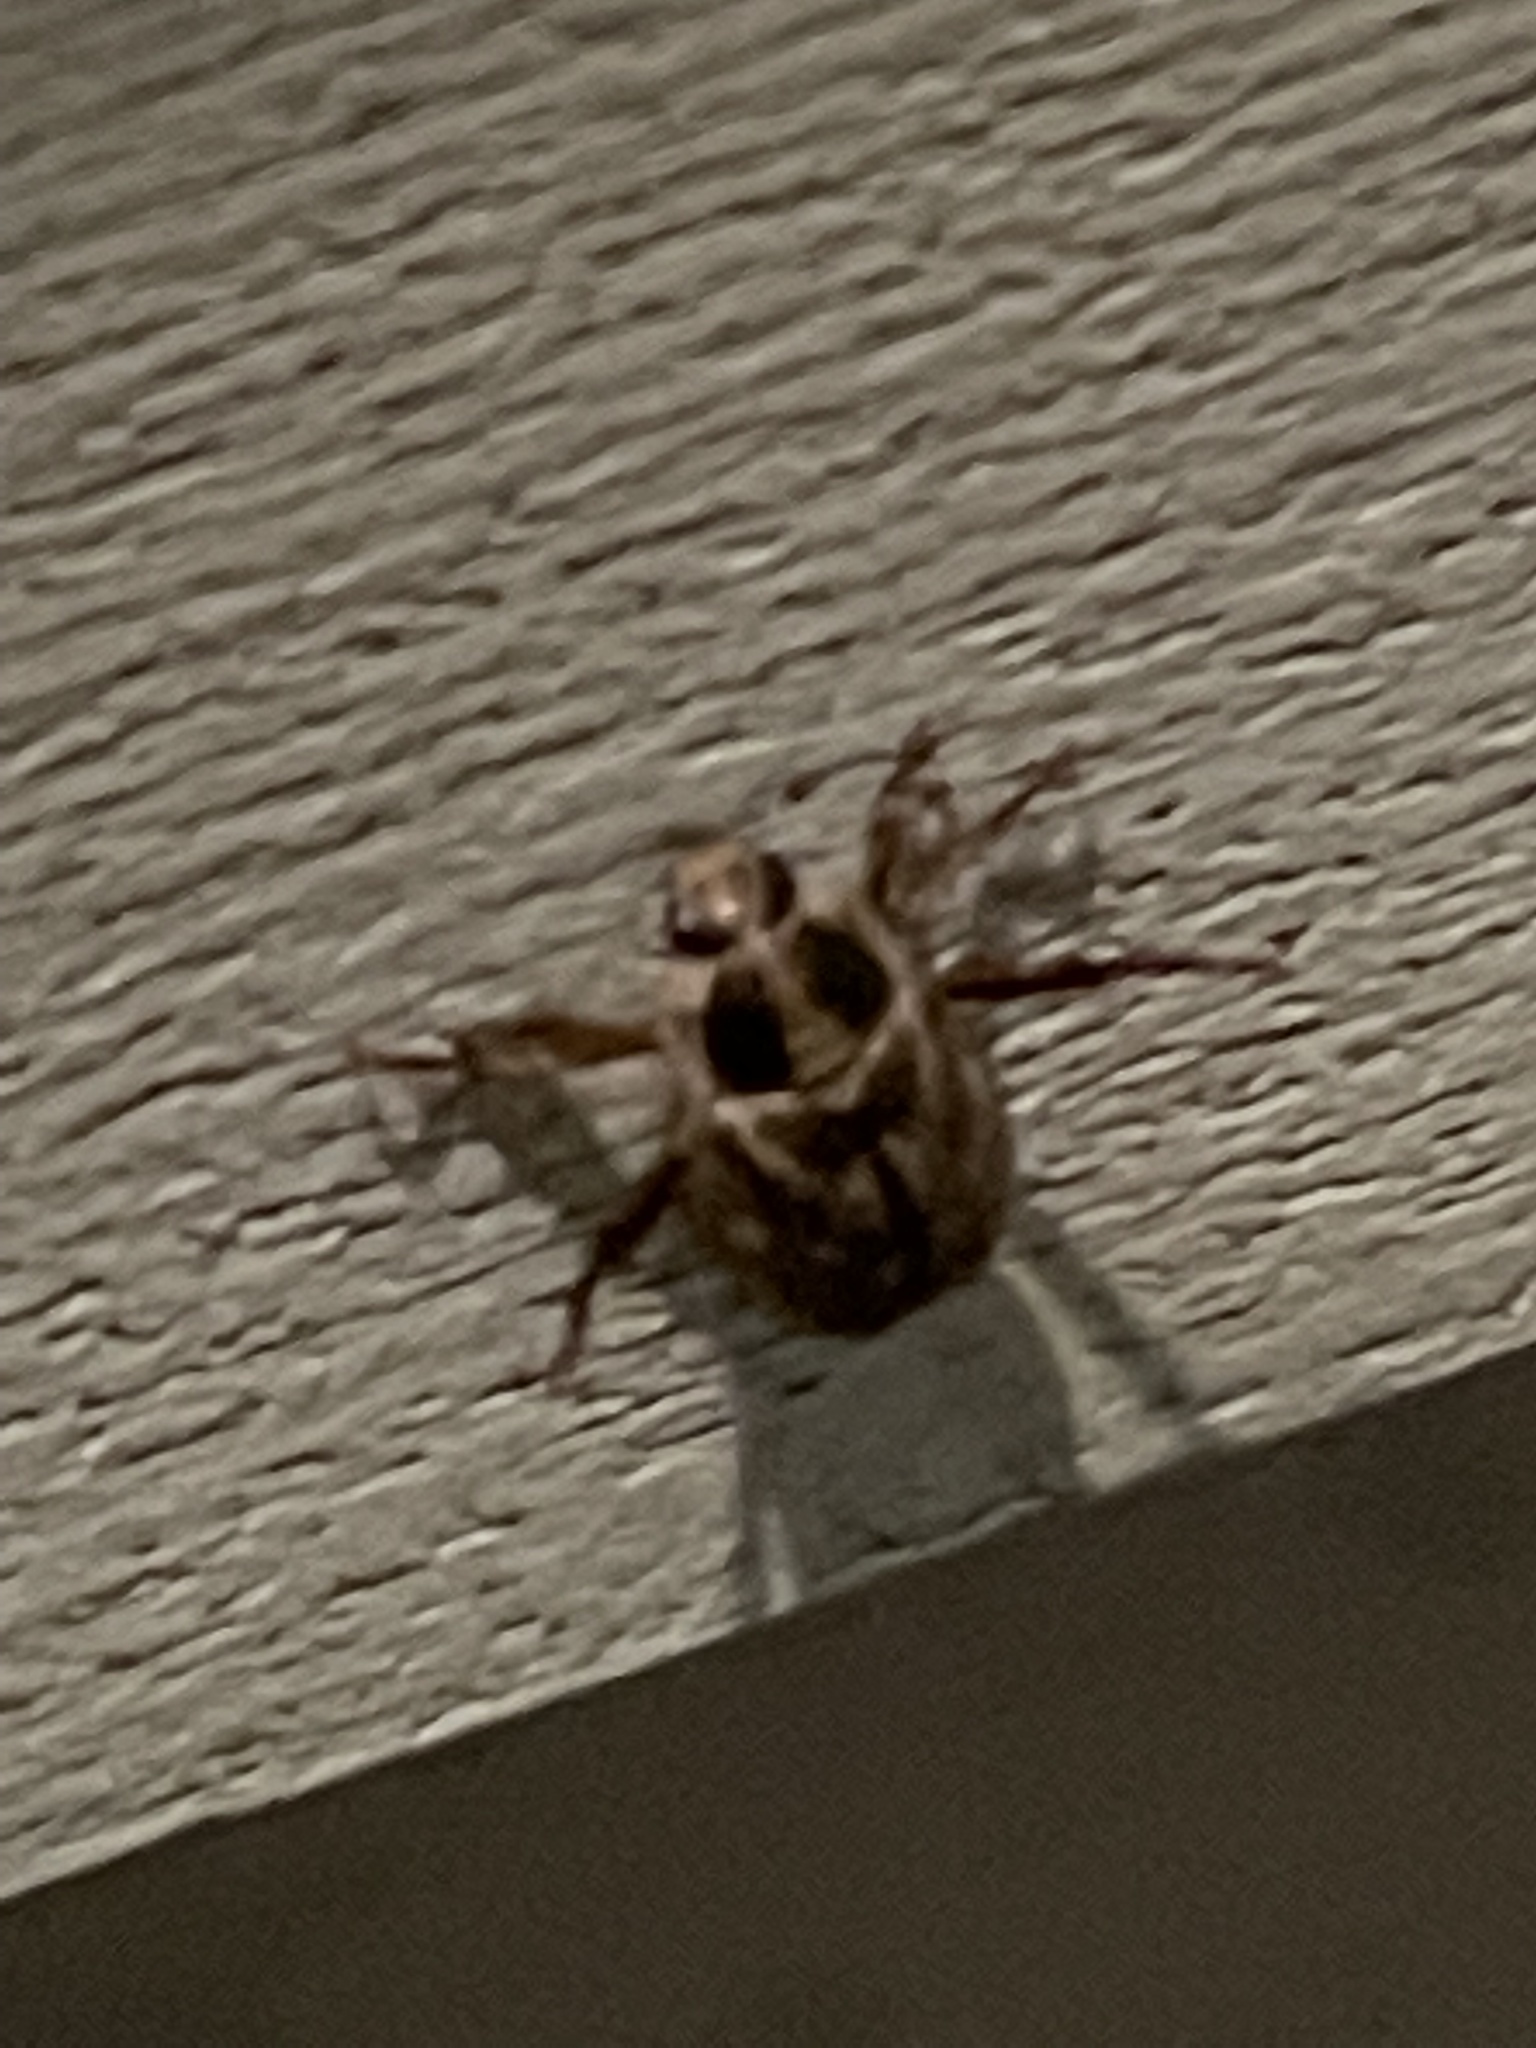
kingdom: Animalia
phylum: Arthropoda
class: Insecta
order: Coleoptera
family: Scarabaeidae
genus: Exomala
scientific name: Exomala orientalis
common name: Oriental beetle
